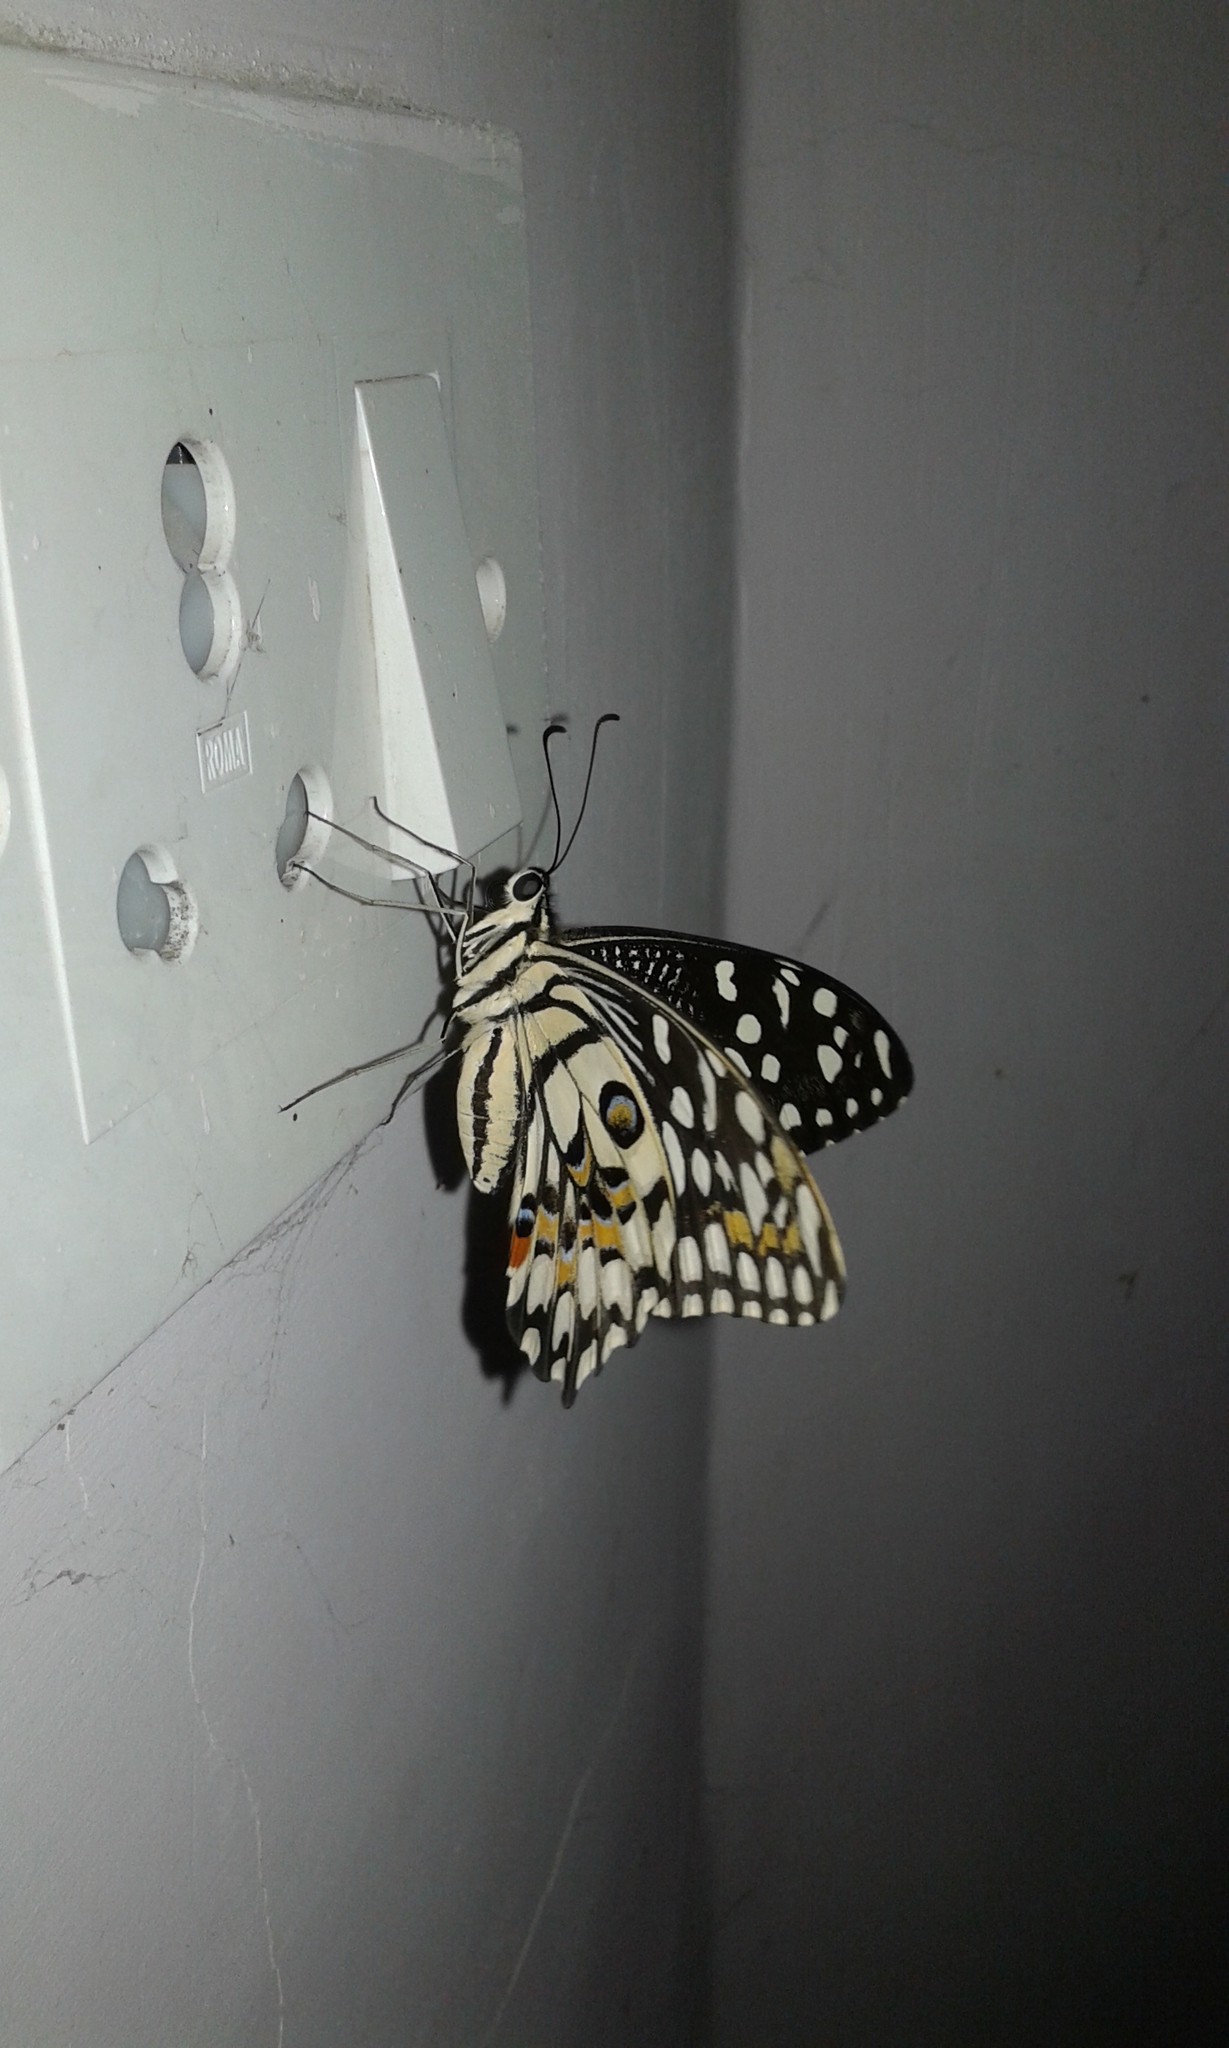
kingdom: Animalia
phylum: Arthropoda
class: Insecta
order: Lepidoptera
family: Papilionidae
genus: Papilio
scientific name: Papilio demoleus
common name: Lime butterfly
